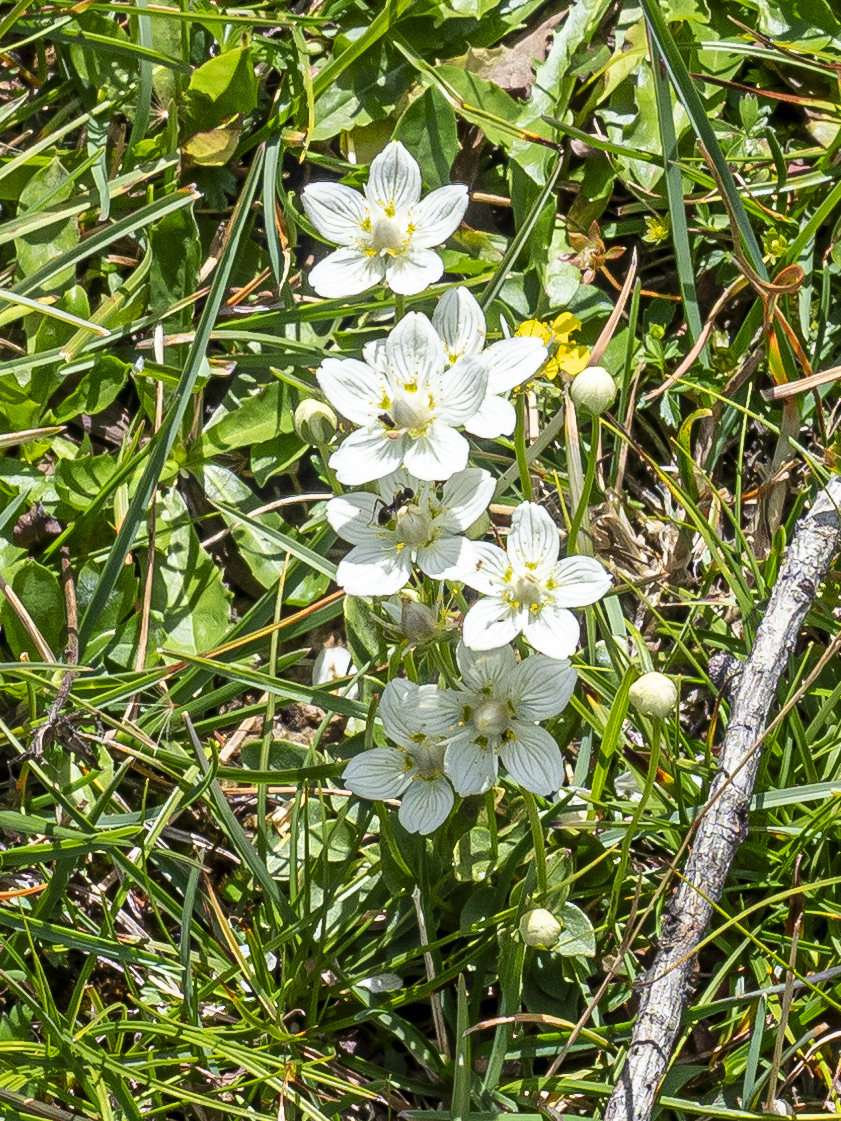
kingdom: Plantae
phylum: Tracheophyta
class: Magnoliopsida
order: Celastrales
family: Parnassiaceae
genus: Parnassia
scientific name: Parnassia palustris
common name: Grass-of-parnassus
